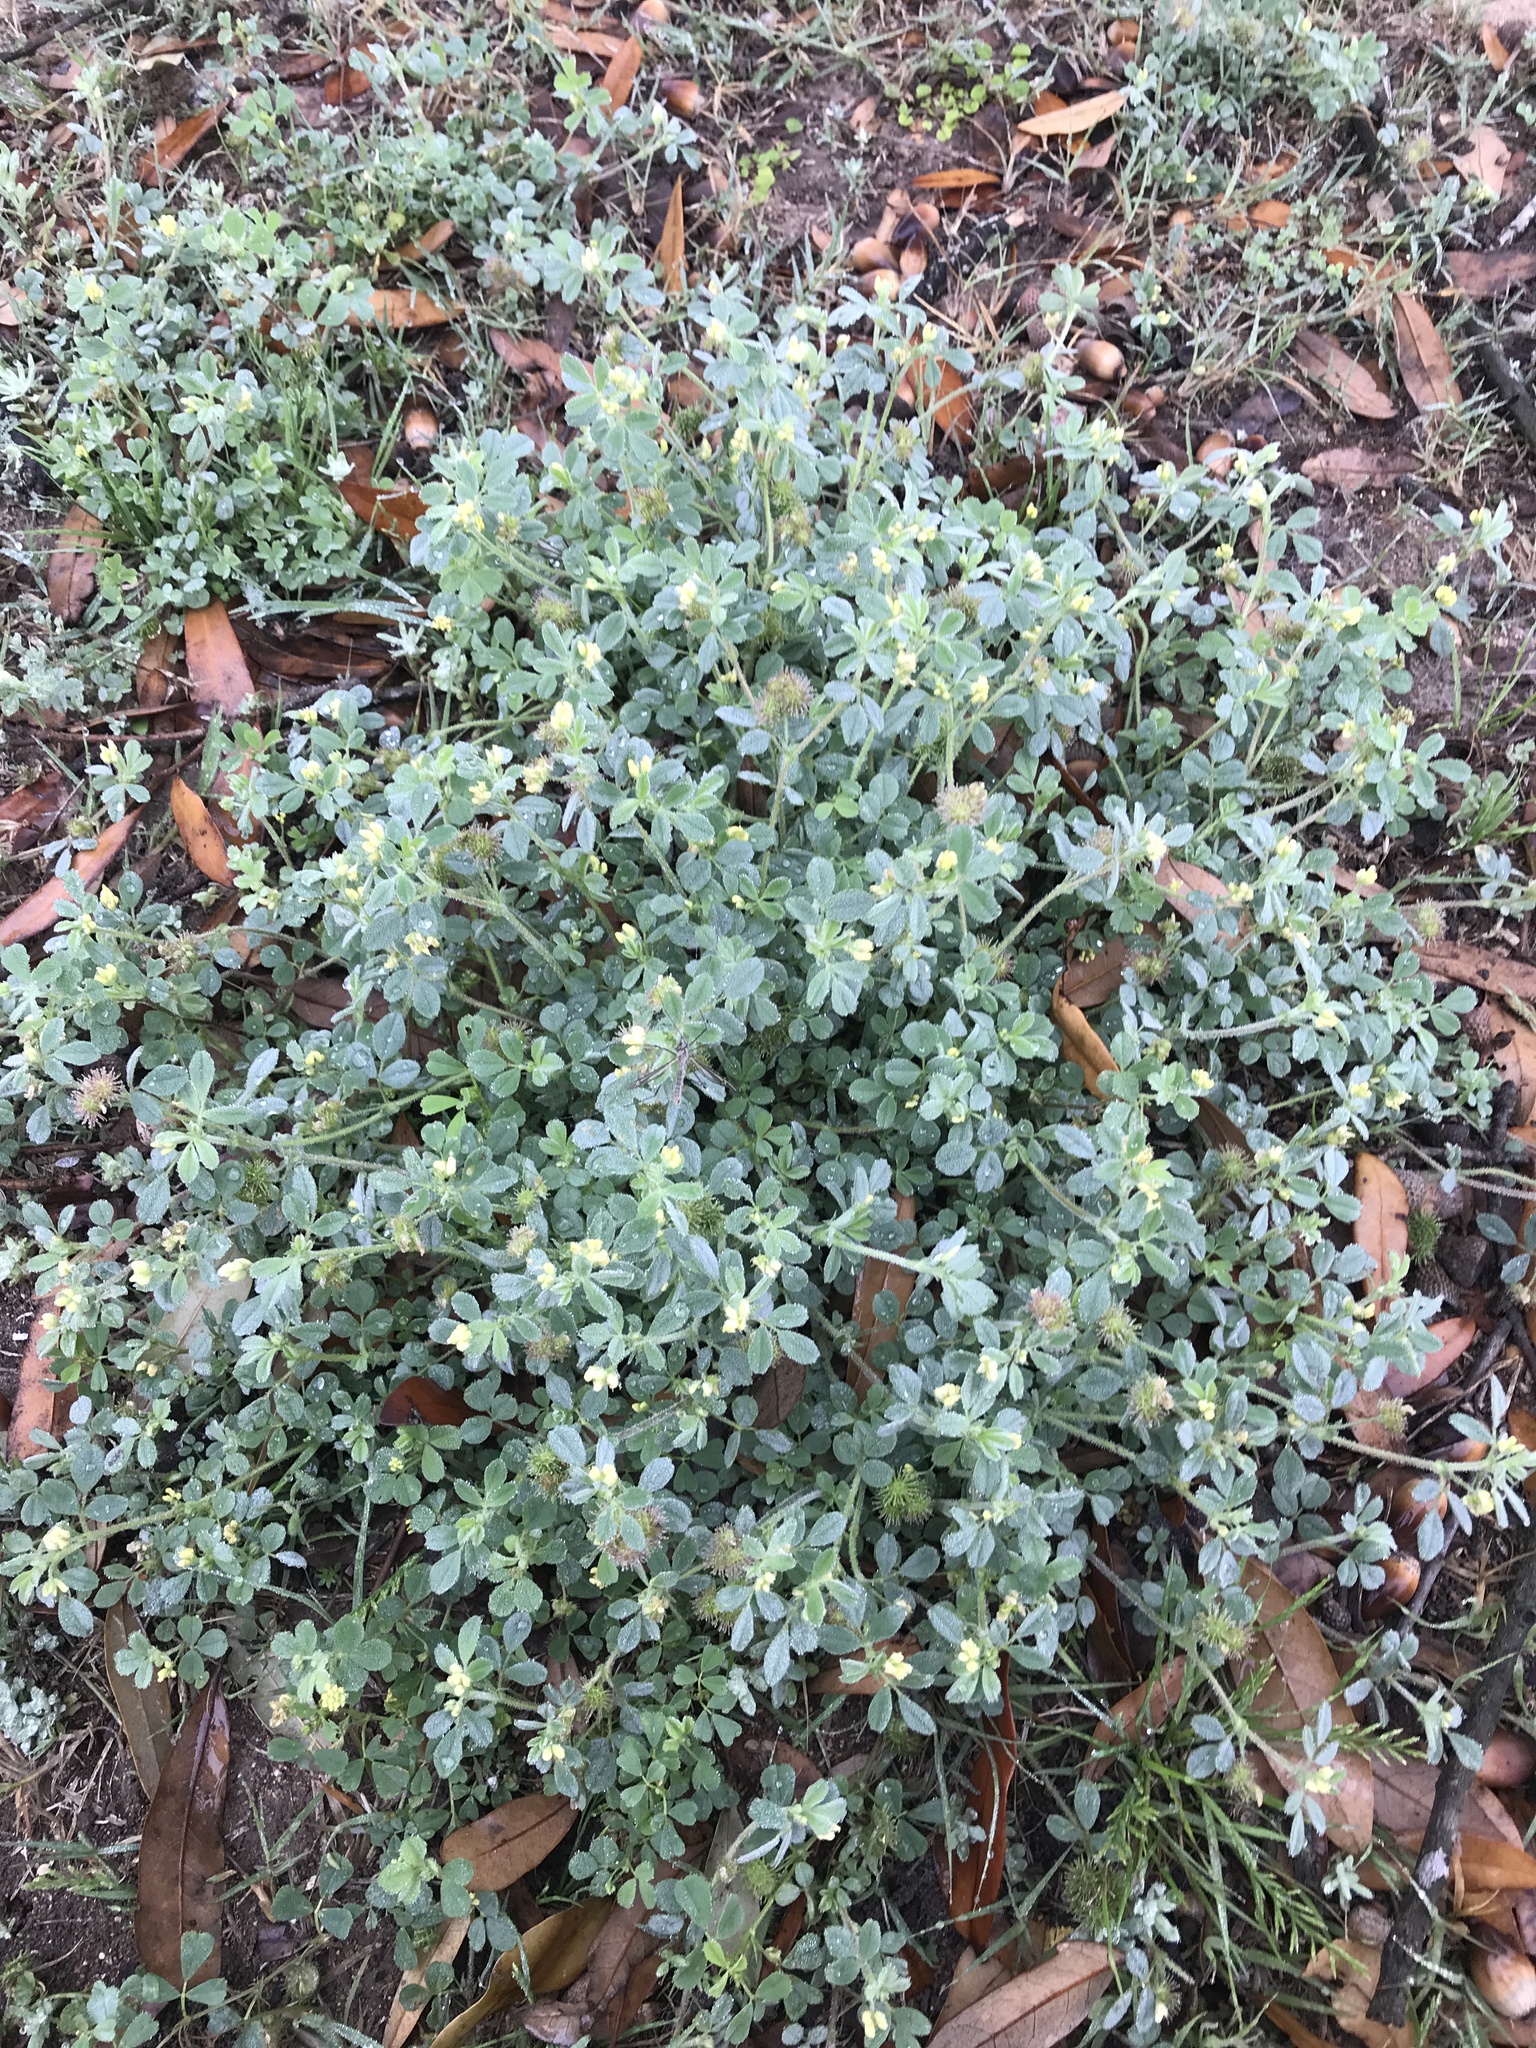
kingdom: Plantae
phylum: Tracheophyta
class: Magnoliopsida
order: Fabales
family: Fabaceae
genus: Medicago
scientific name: Medicago minima
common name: Little bur-clover
